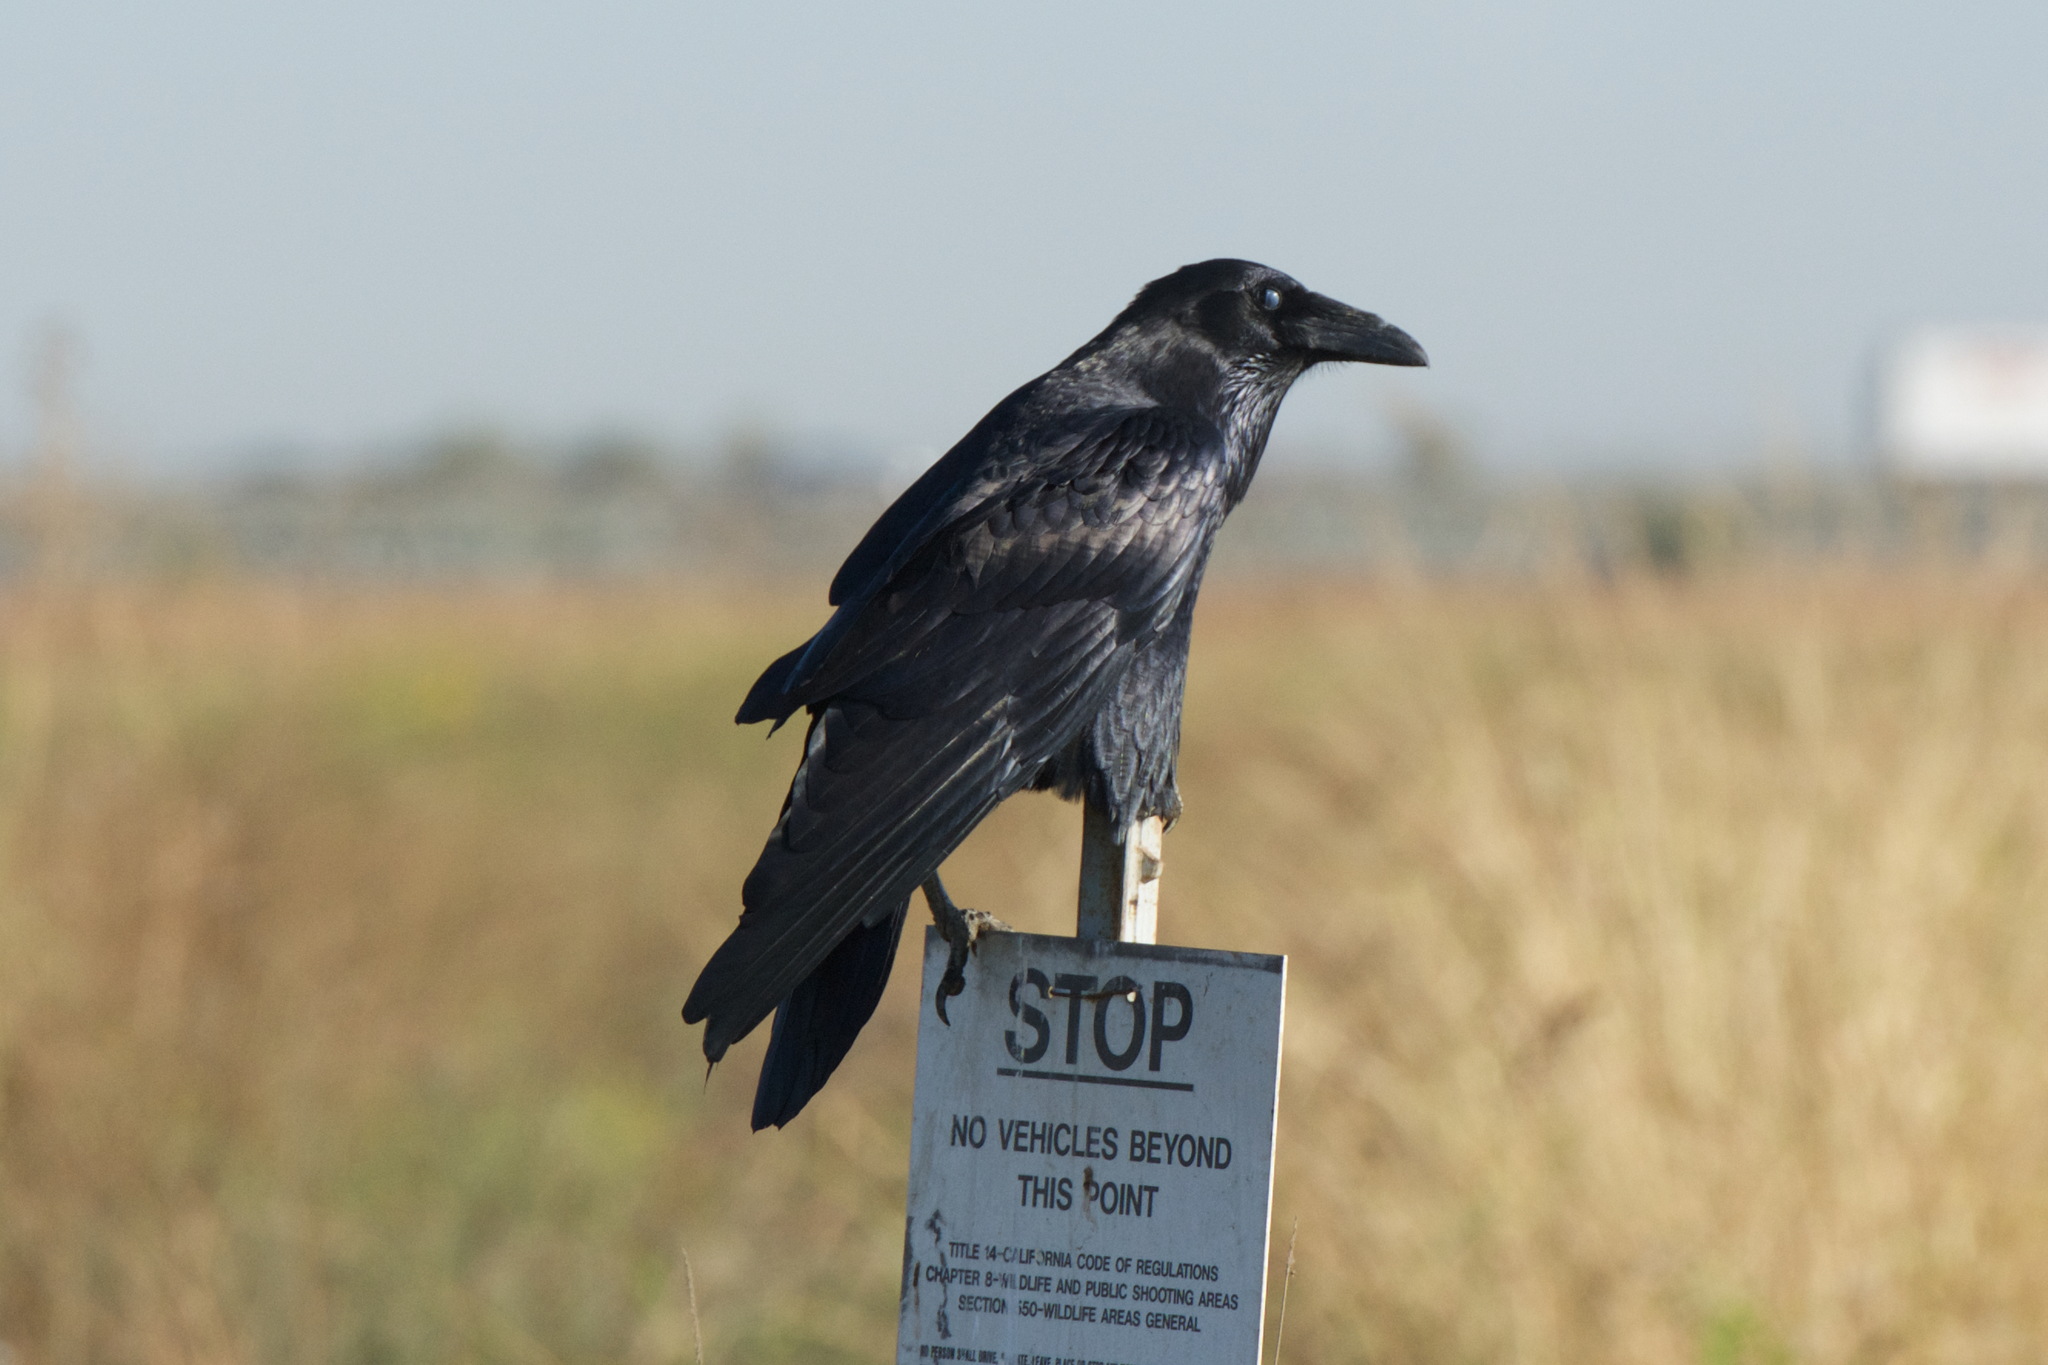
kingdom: Animalia
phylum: Chordata
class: Aves
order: Passeriformes
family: Corvidae
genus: Corvus
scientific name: Corvus corax
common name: Common raven
